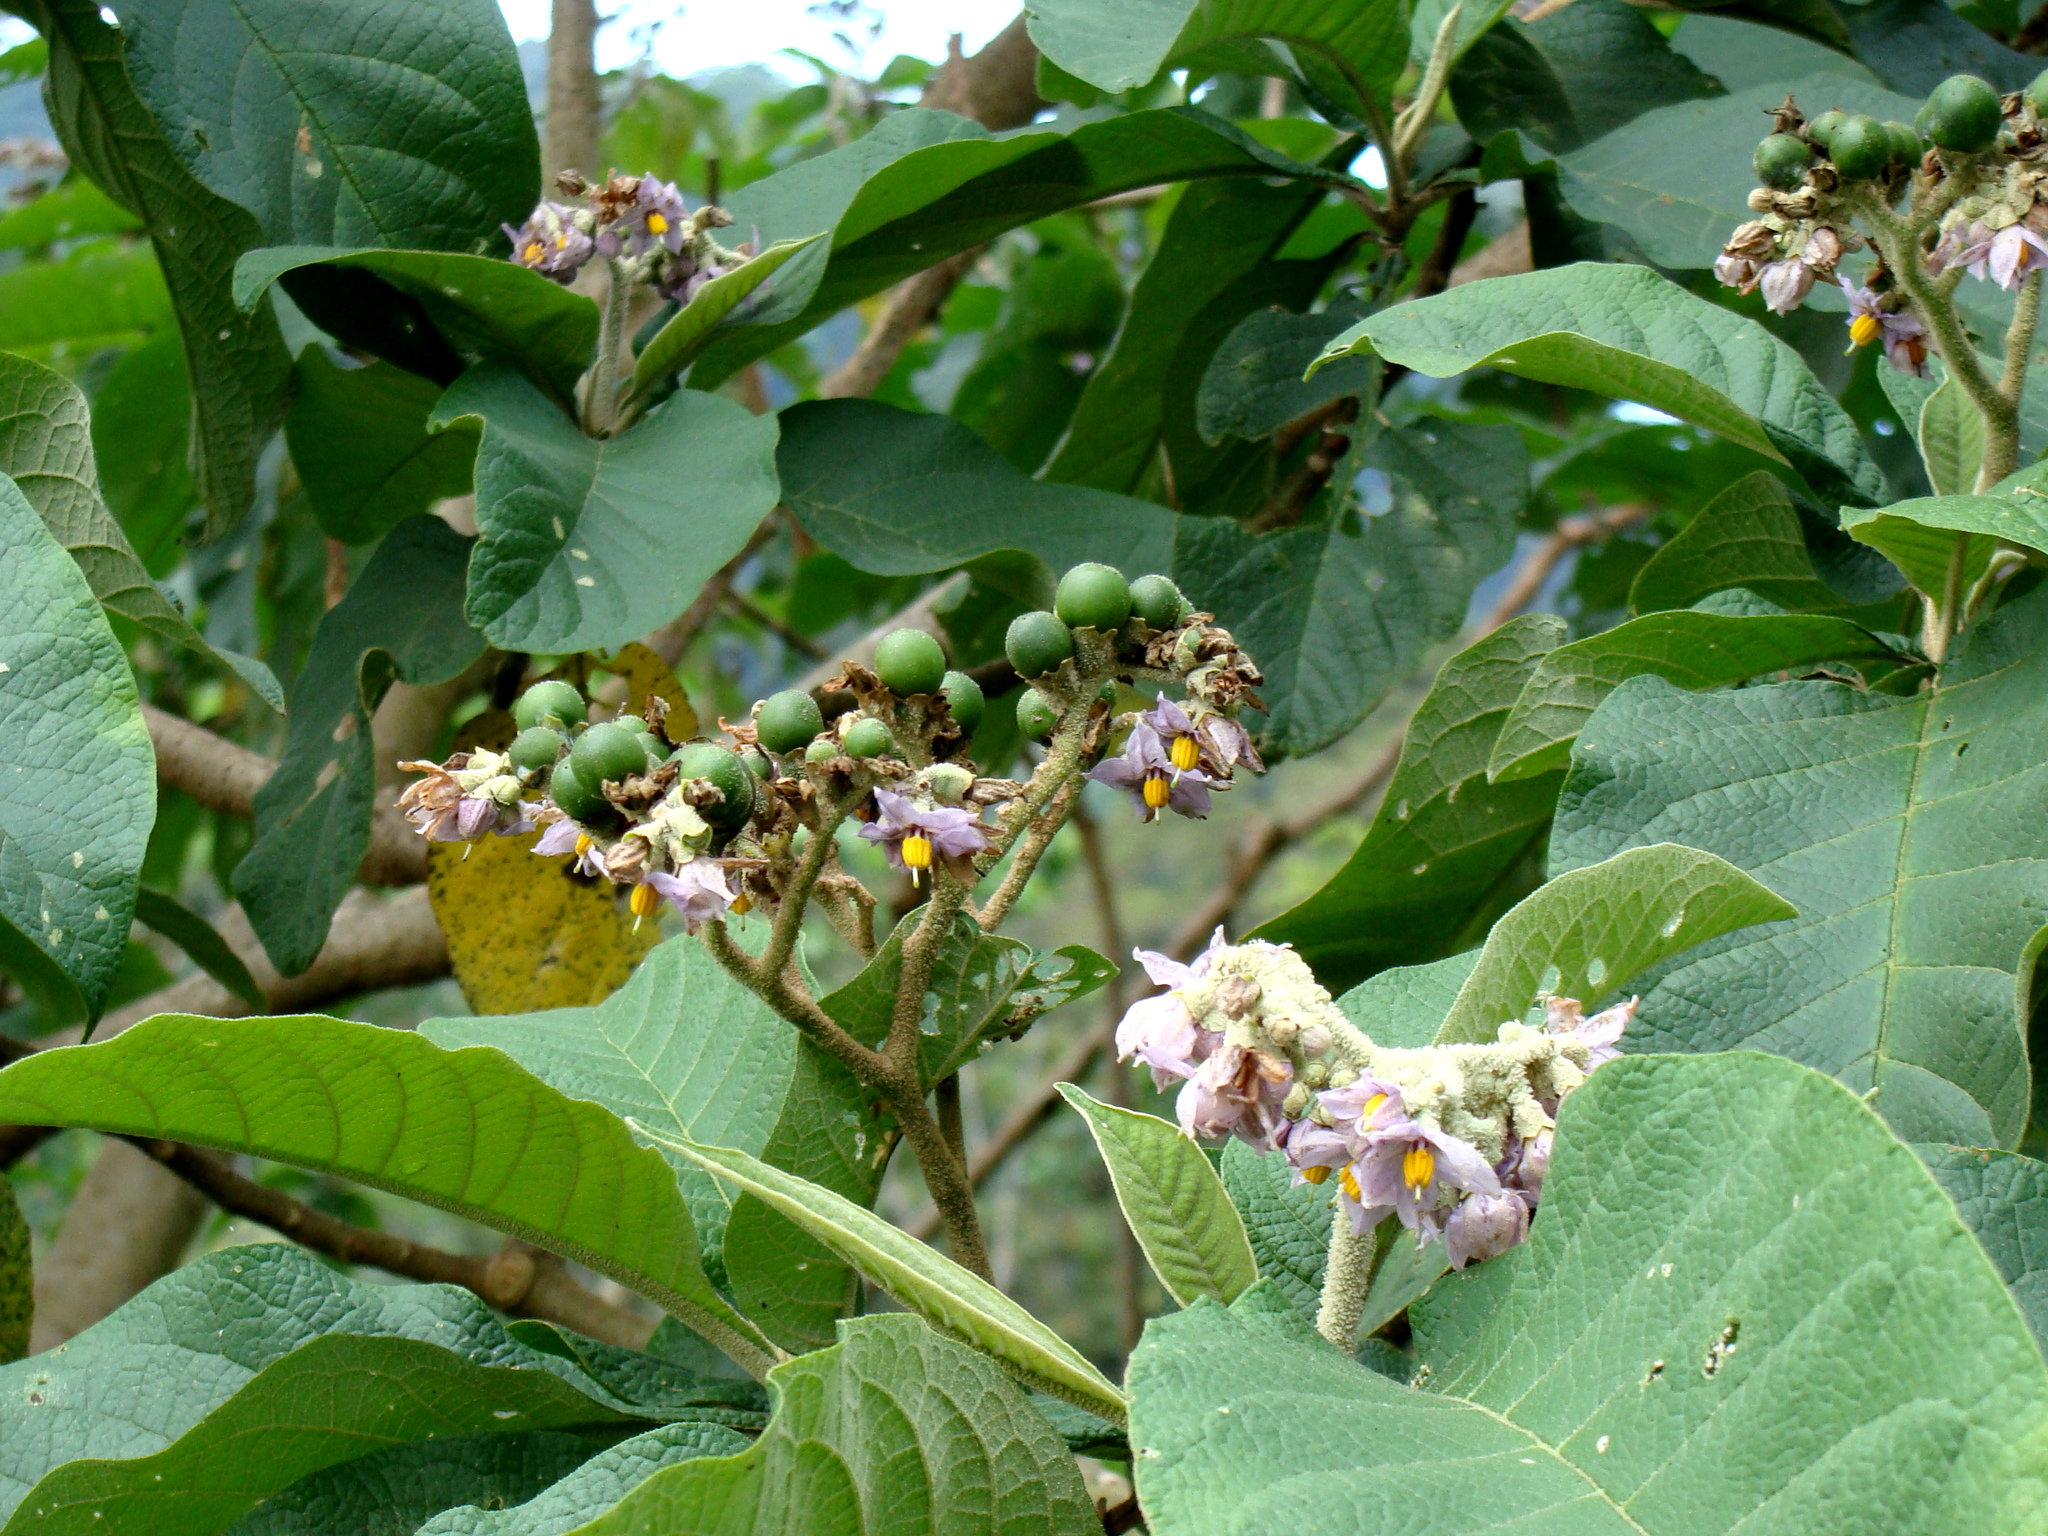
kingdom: Plantae
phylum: Tracheophyta
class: Magnoliopsida
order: Solanales
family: Solanaceae
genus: Solanum
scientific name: Solanum chiapasense
